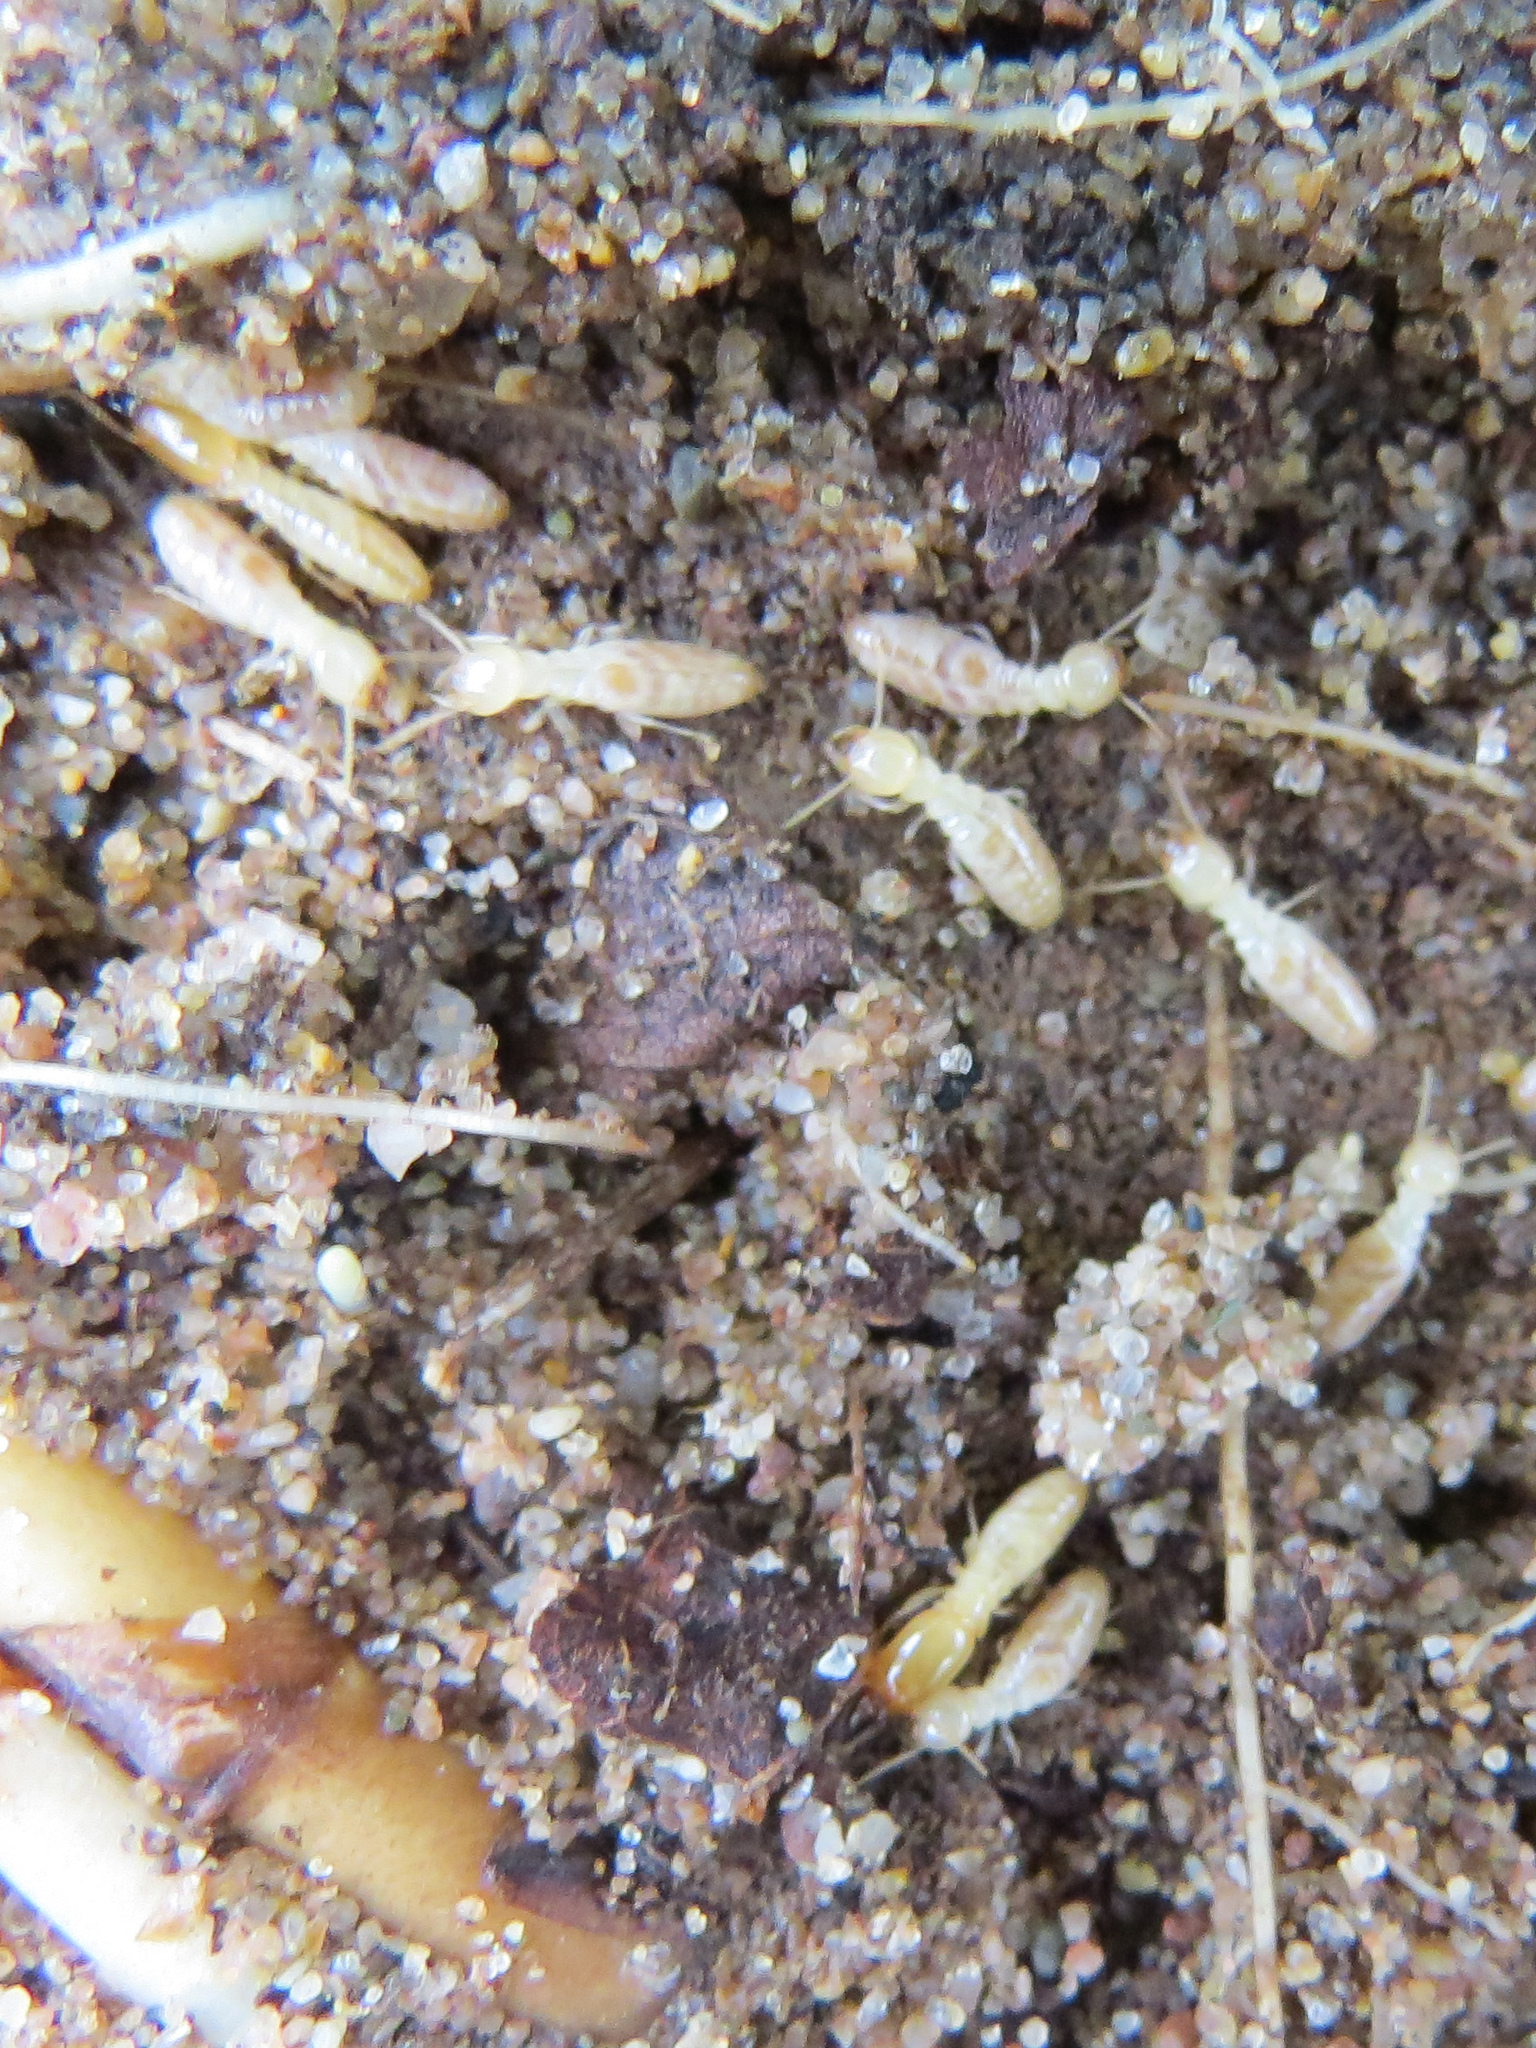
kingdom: Animalia
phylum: Arthropoda
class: Insecta
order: Blattodea
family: Rhinotermitidae
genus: Reticulitermes
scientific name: Reticulitermes flavipes
